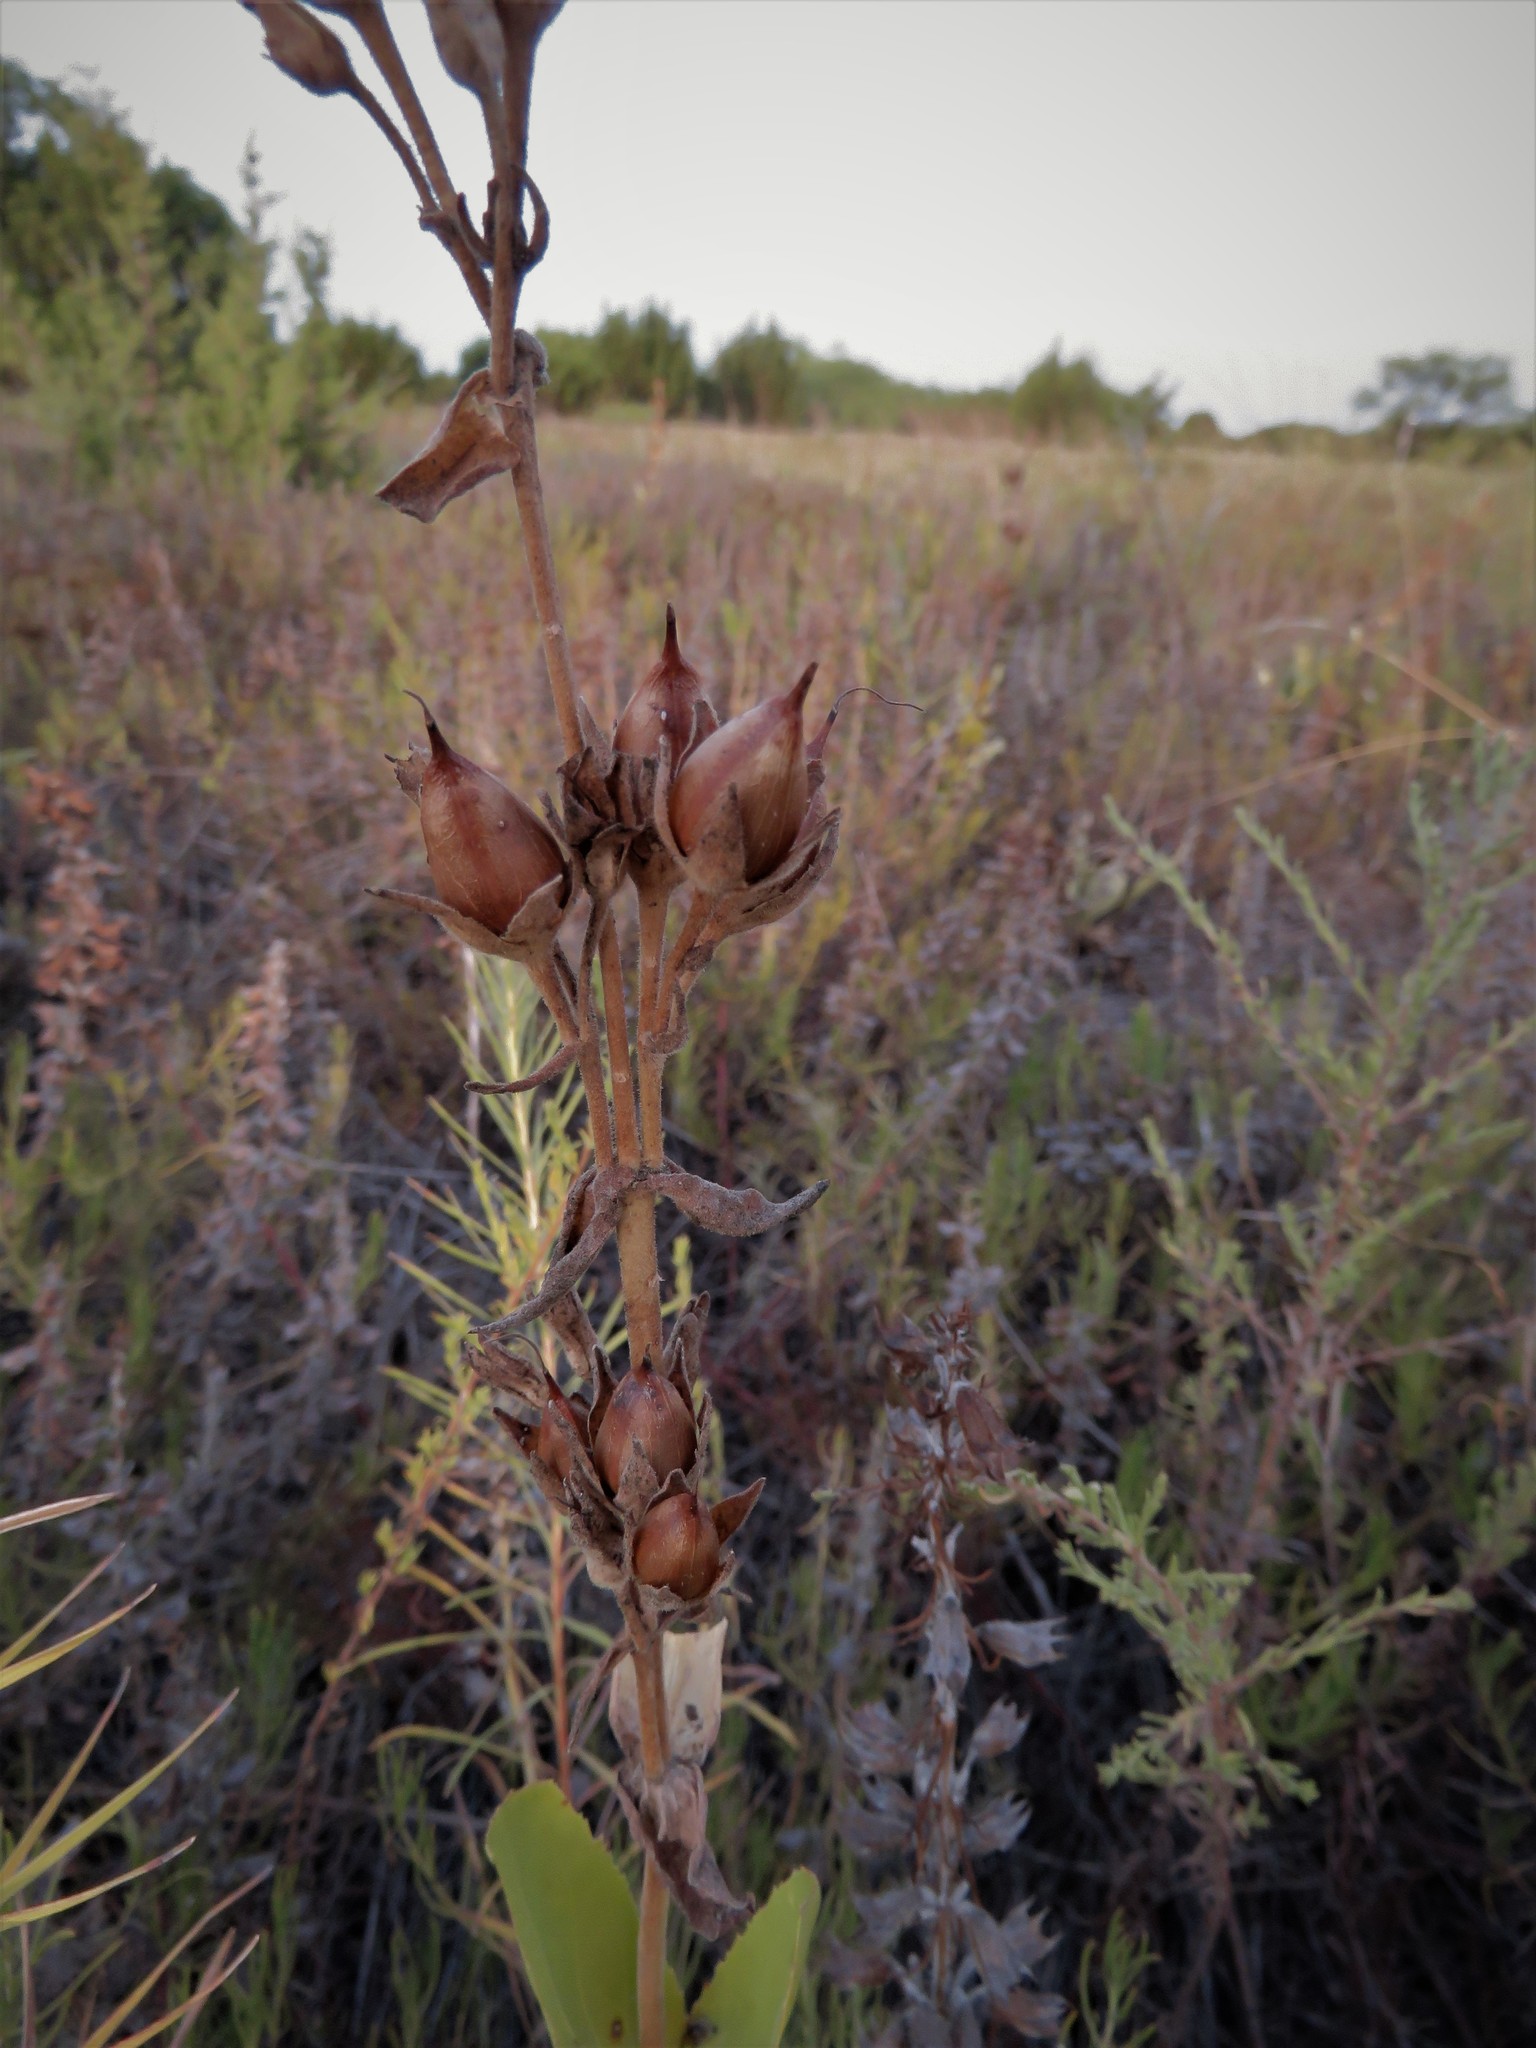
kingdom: Plantae
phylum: Tracheophyta
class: Magnoliopsida
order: Lamiales
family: Plantaginaceae
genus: Penstemon
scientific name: Penstemon cobaea
